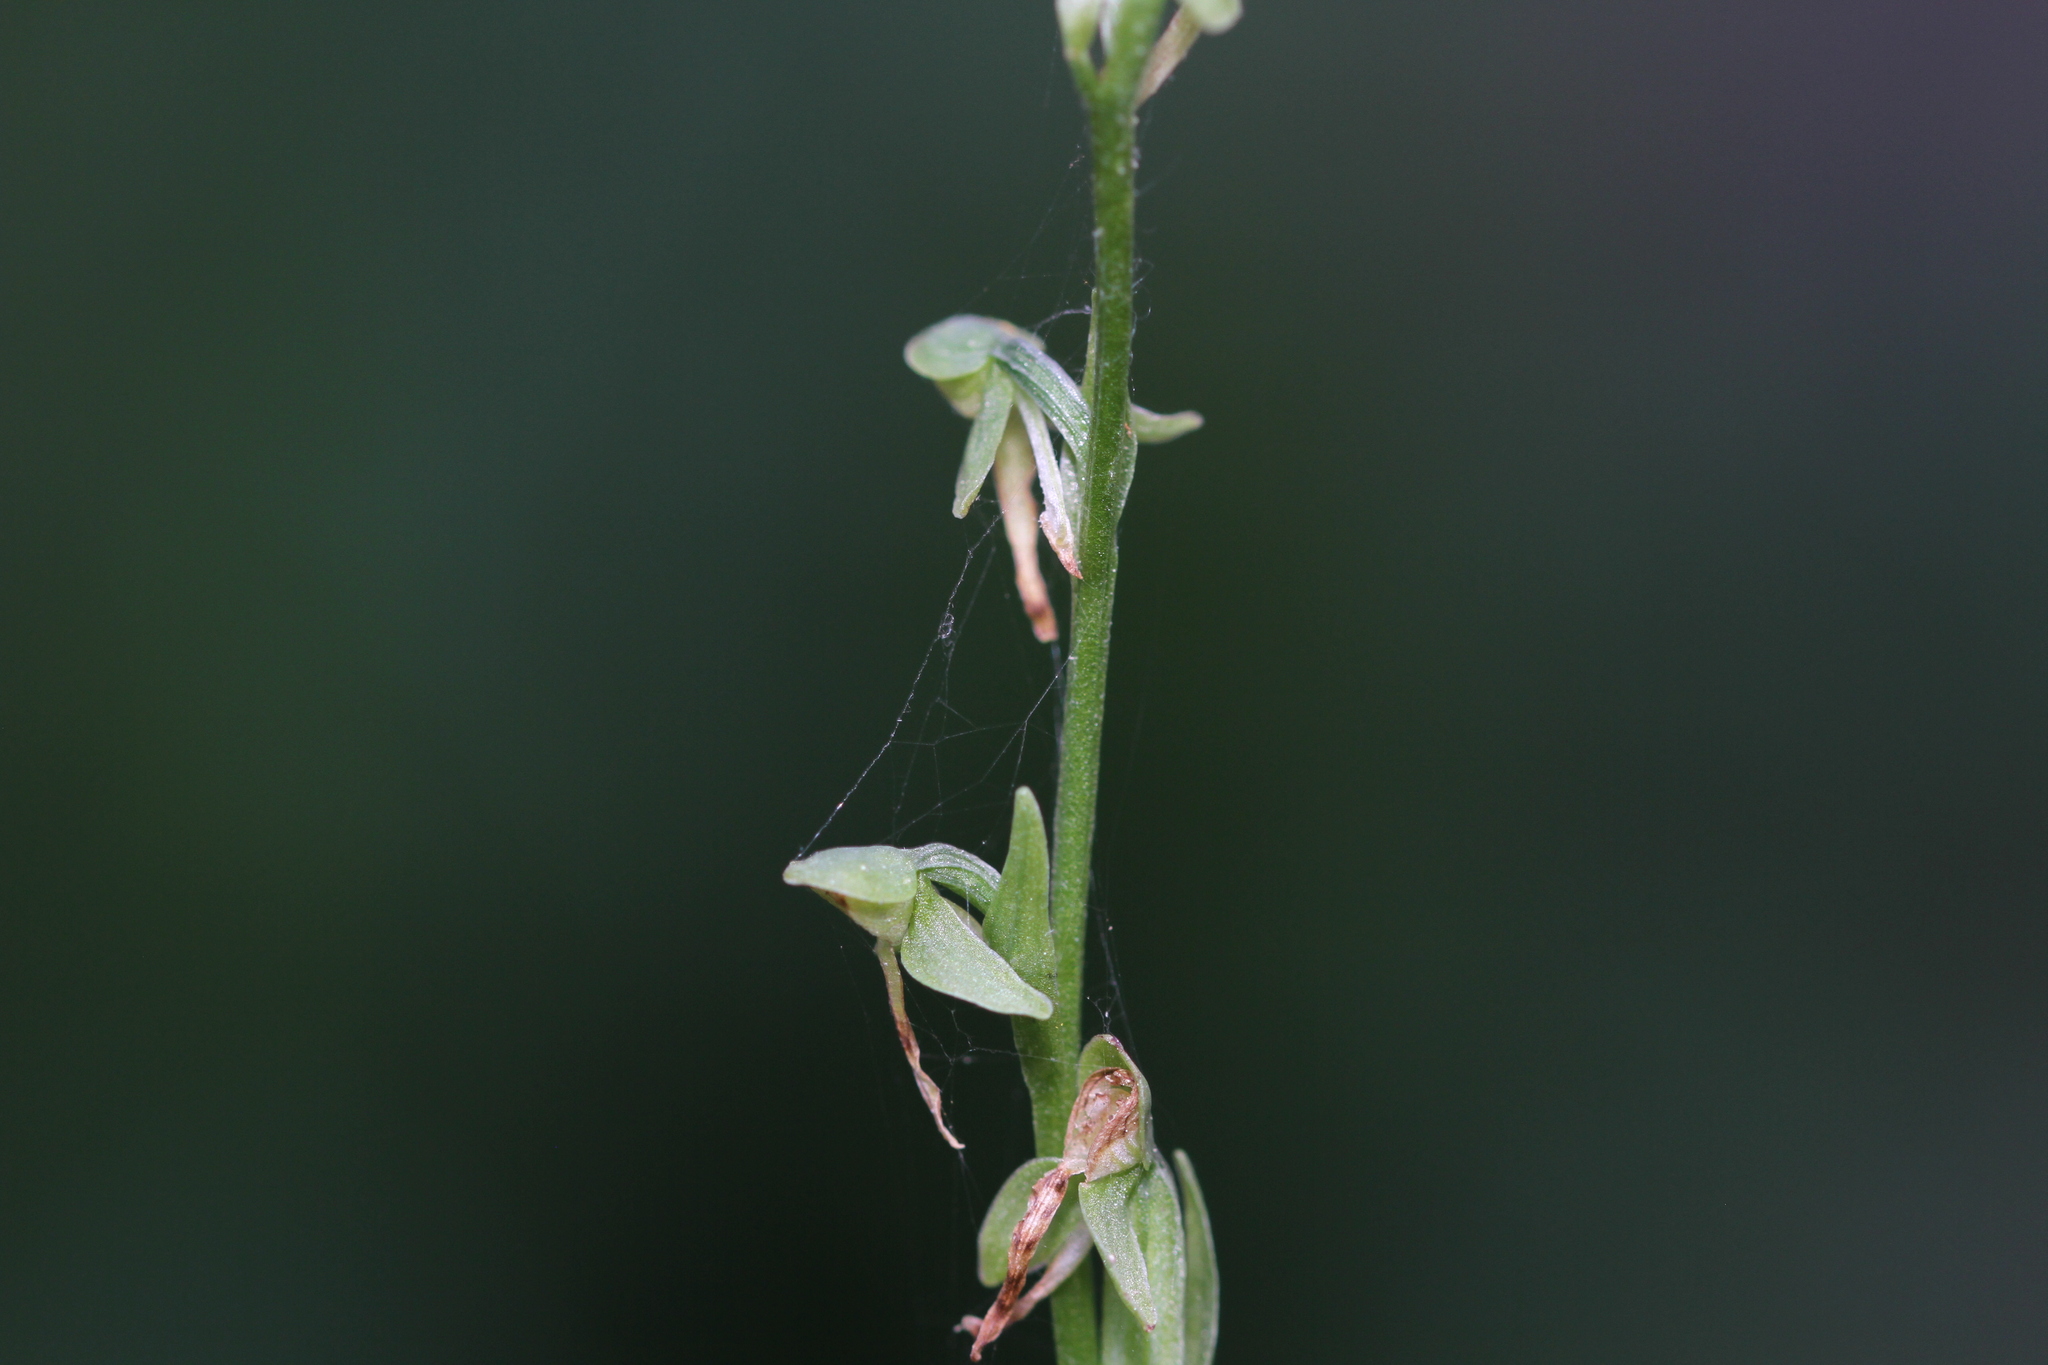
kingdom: Plantae
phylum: Tracheophyta
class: Liliopsida
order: Asparagales
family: Orchidaceae
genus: Platanthera
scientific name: Platanthera sparsiflora
